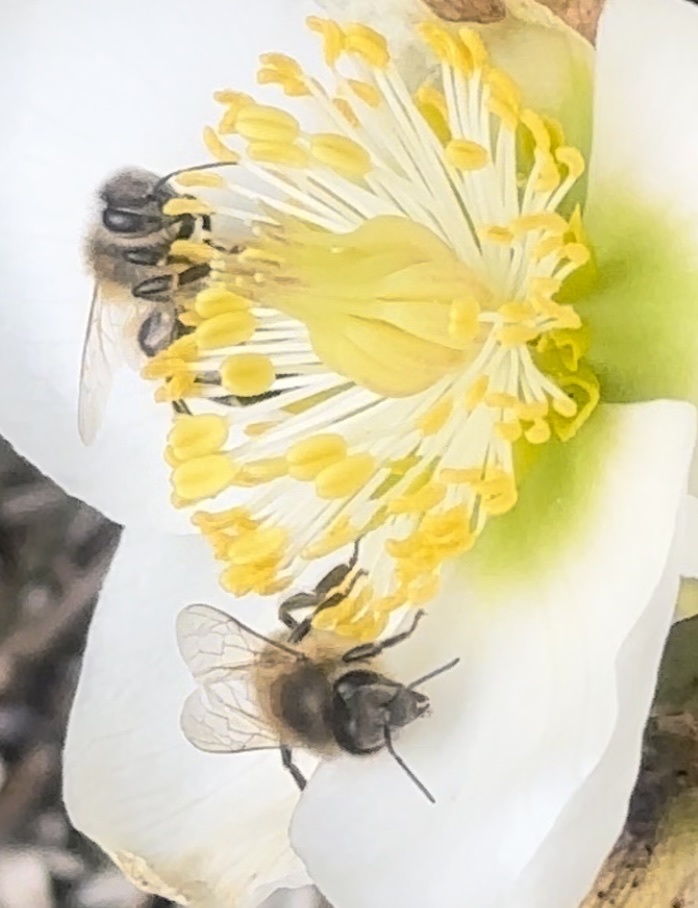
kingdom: Animalia
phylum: Arthropoda
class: Insecta
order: Hymenoptera
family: Apidae
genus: Apis
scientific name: Apis mellifera
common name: Honey bee
